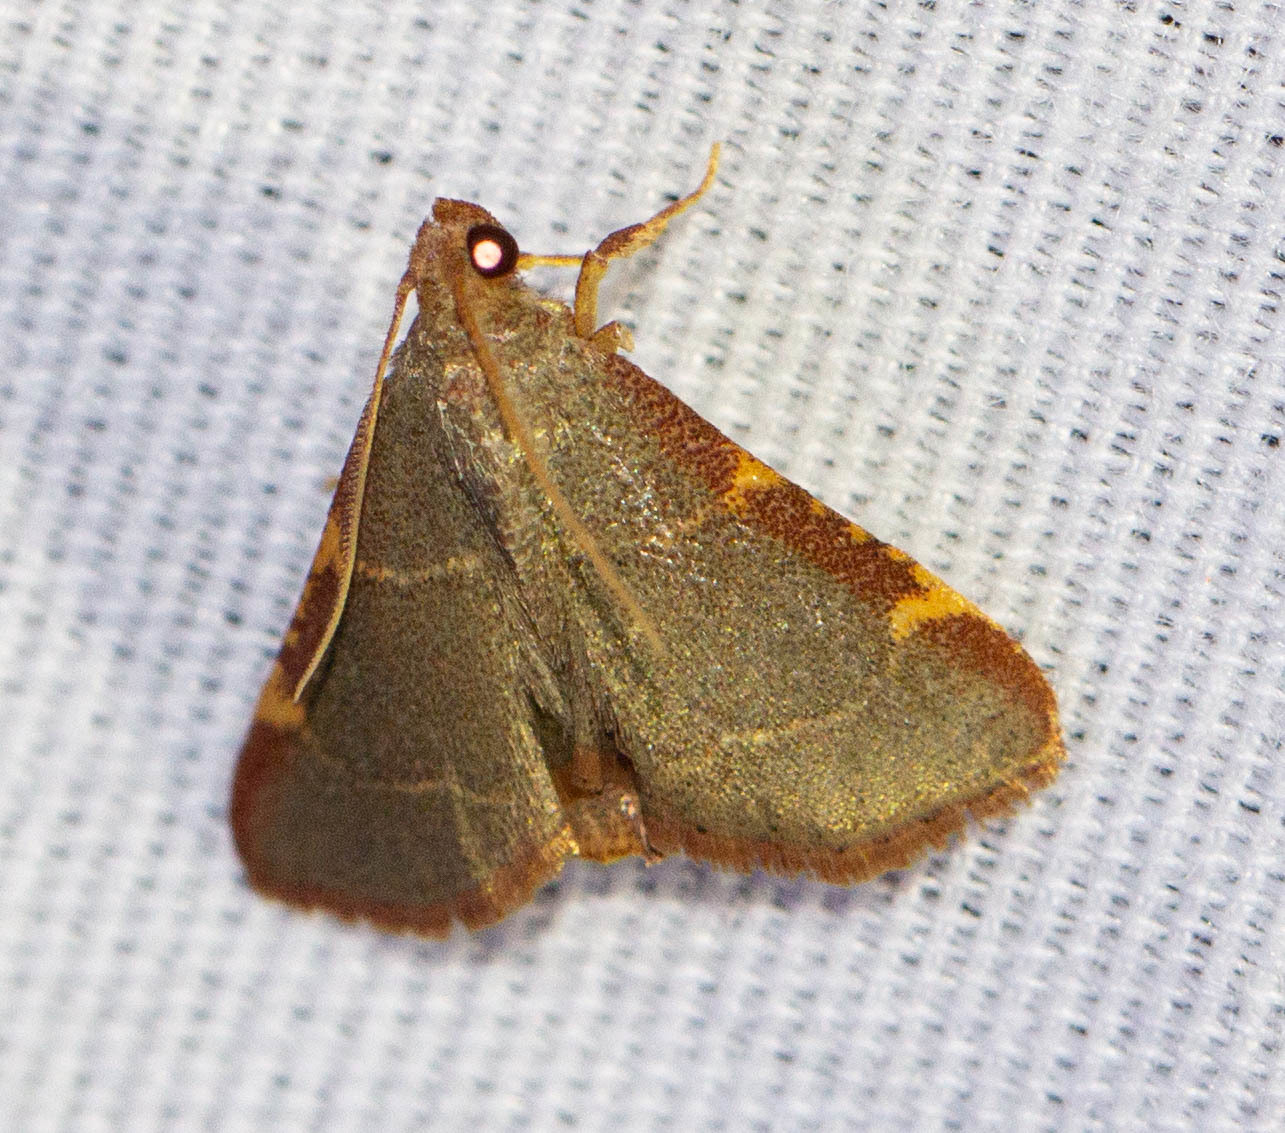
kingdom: Animalia
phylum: Arthropoda
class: Insecta
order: Lepidoptera
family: Pyralidae
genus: Hypsopygia
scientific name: Hypsopygia binodulalis
